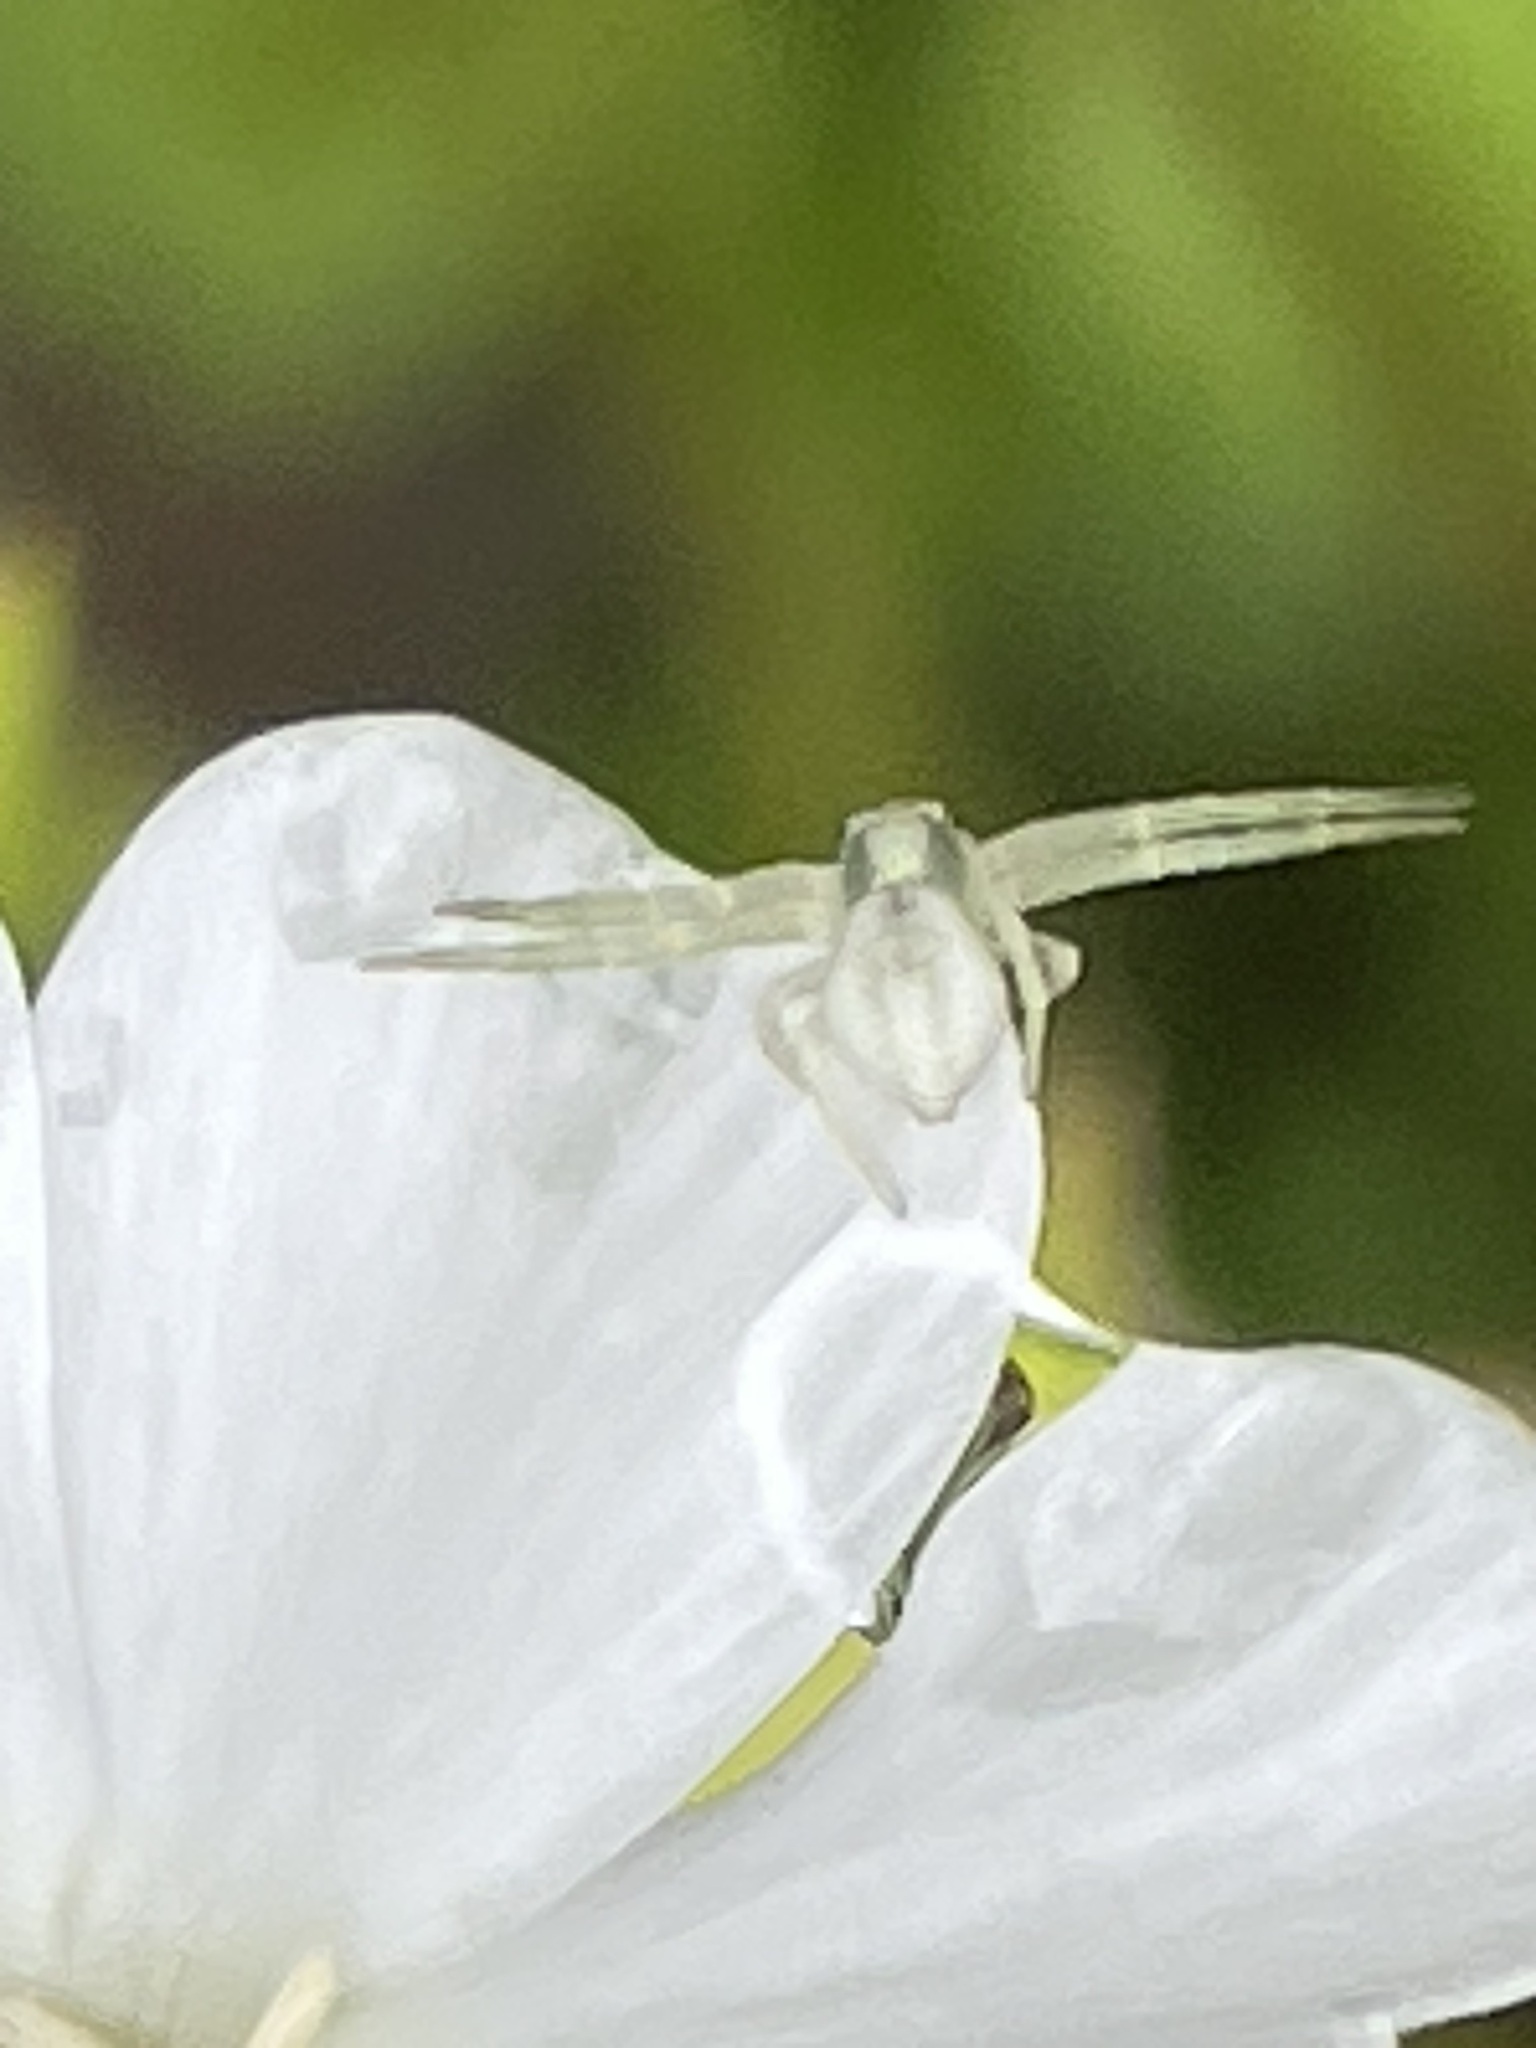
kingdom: Animalia
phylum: Arthropoda
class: Arachnida
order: Araneae
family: Thomisidae
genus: Misumena
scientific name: Misumena vatia
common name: Goldenrod crab spider
